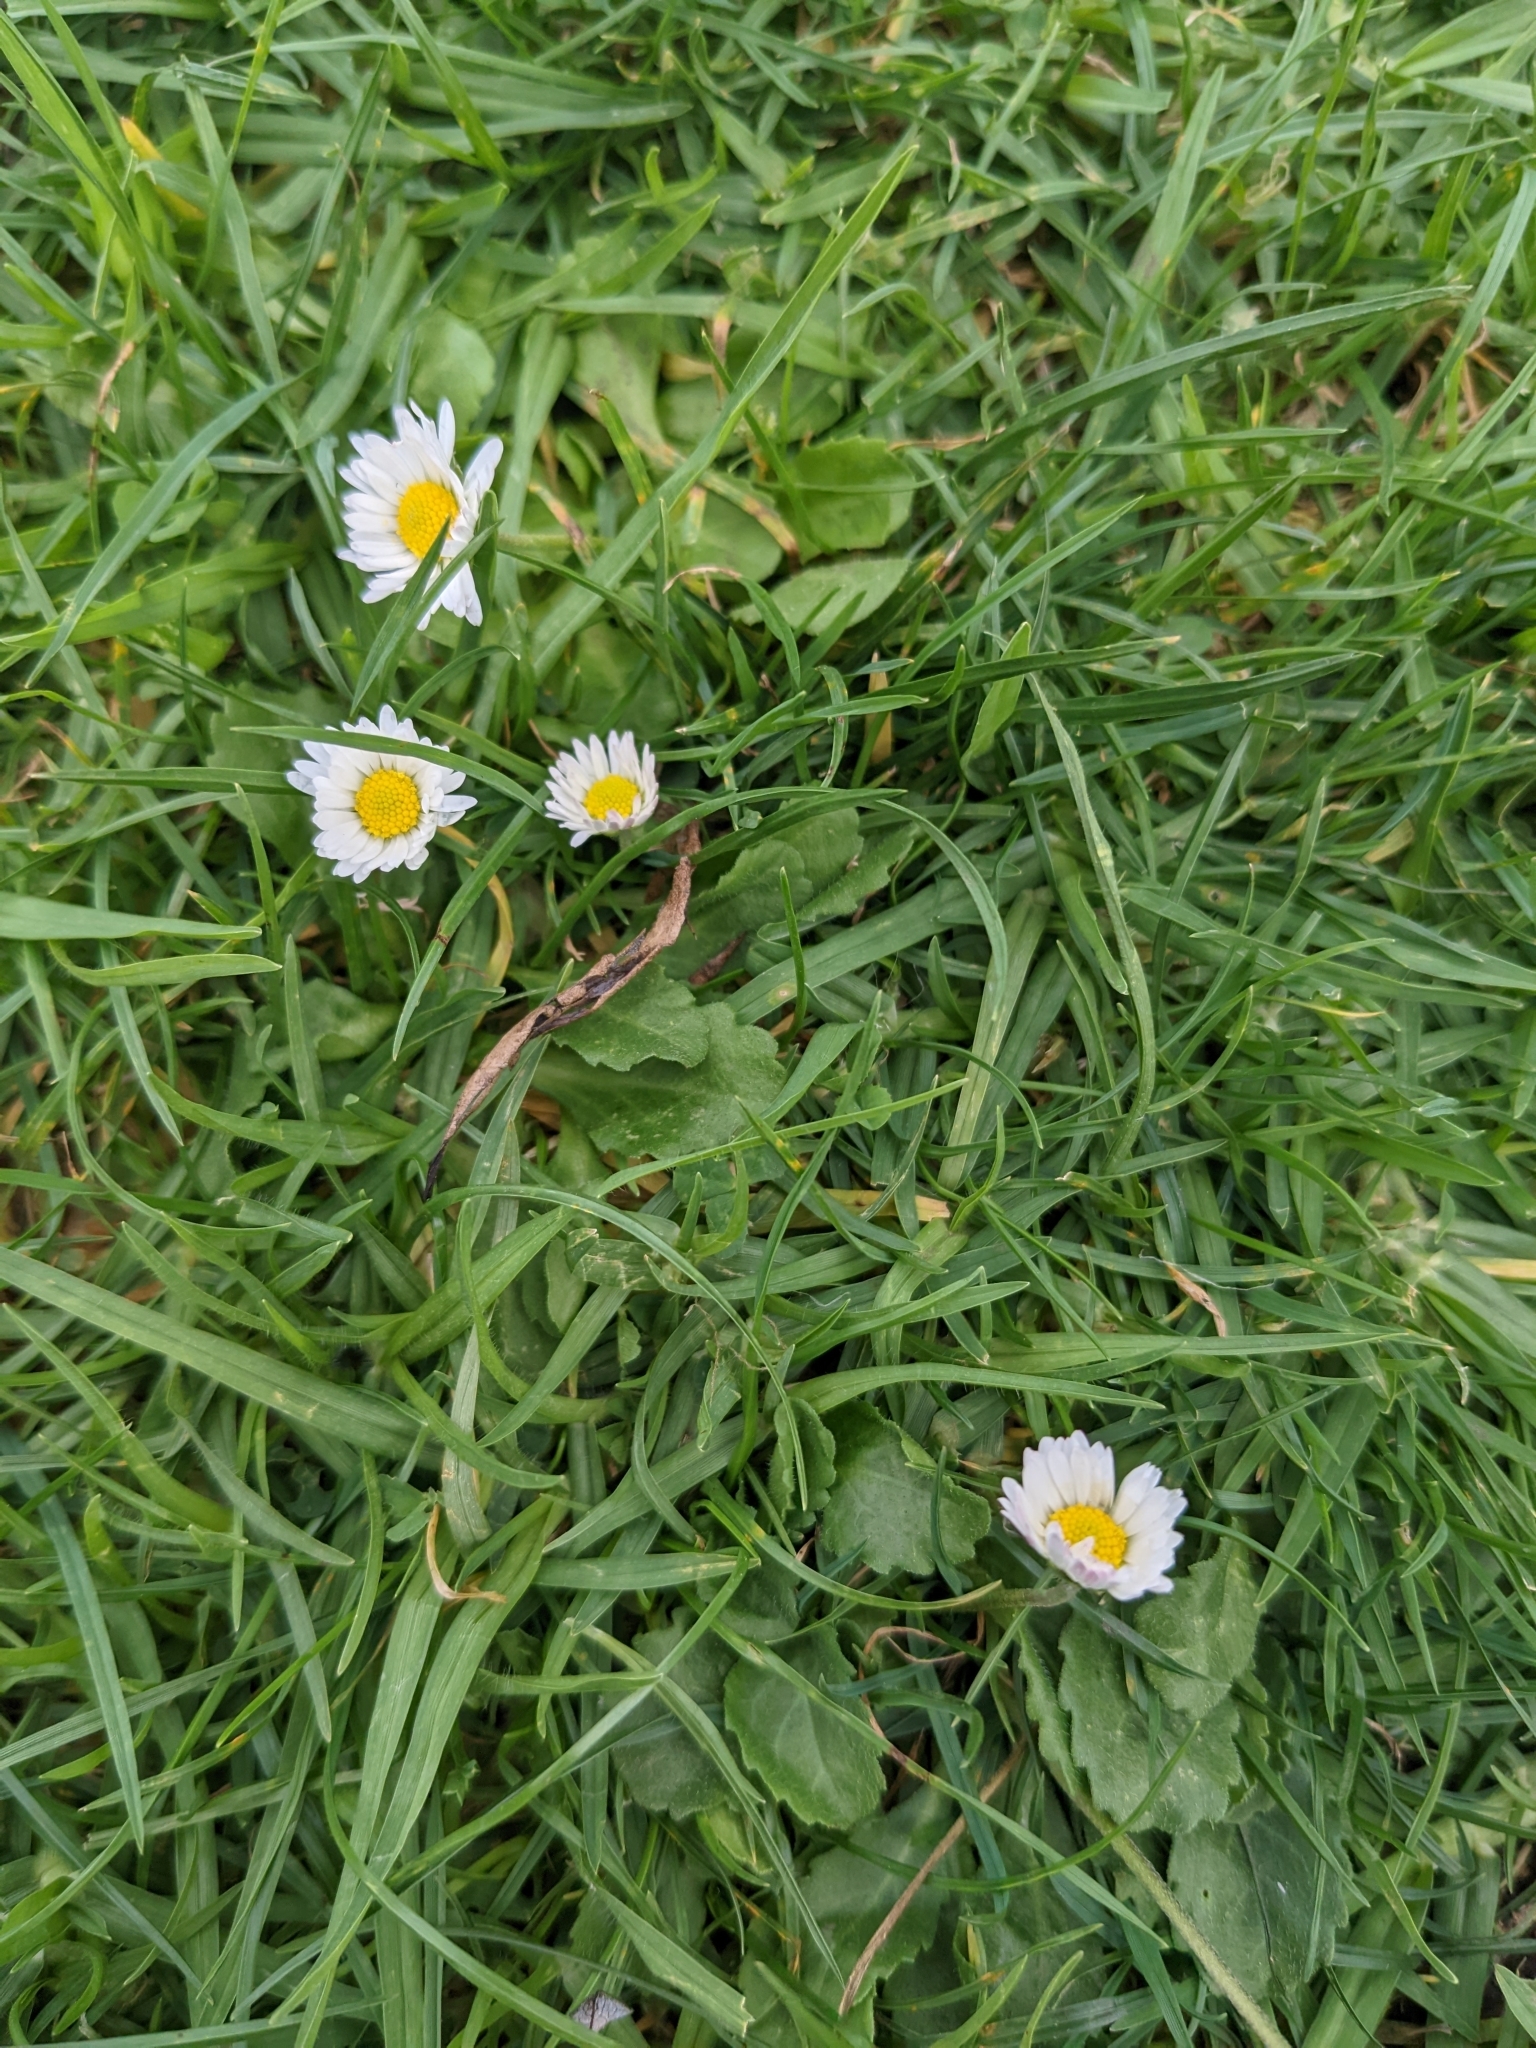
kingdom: Plantae
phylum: Tracheophyta
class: Magnoliopsida
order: Asterales
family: Asteraceae
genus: Bellis
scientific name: Bellis perennis
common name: Lawndaisy
